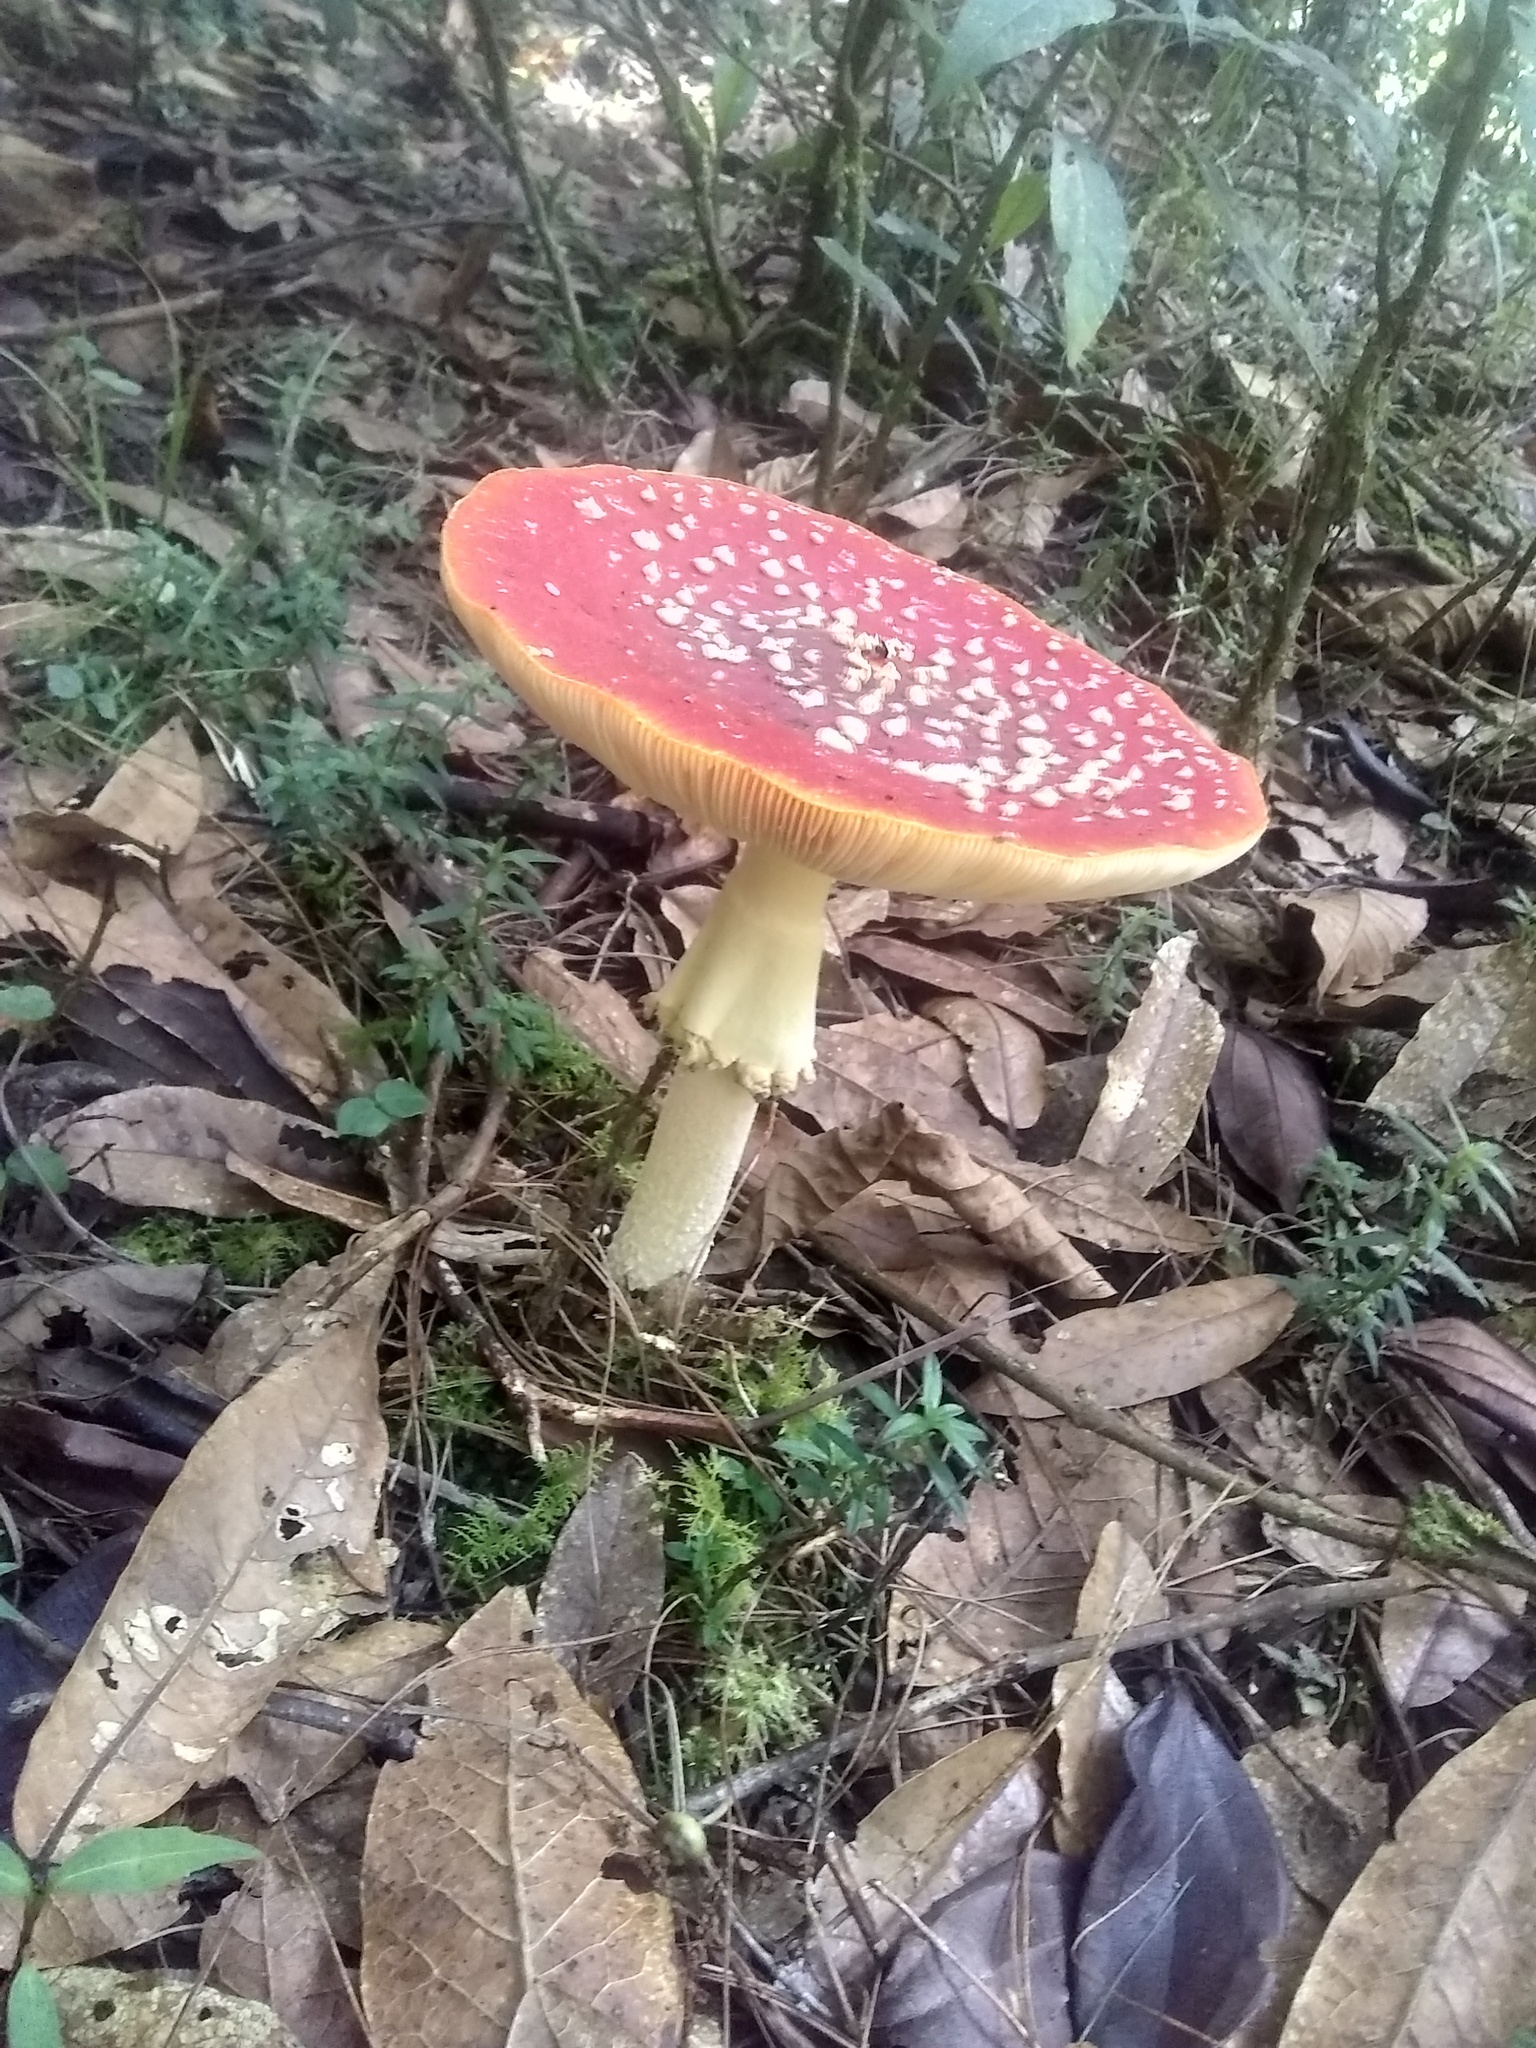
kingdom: Fungi
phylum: Basidiomycota
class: Agaricomycetes
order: Agaricales
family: Amanitaceae
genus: Amanita
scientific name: Amanita muscaria
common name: Fly agaric
